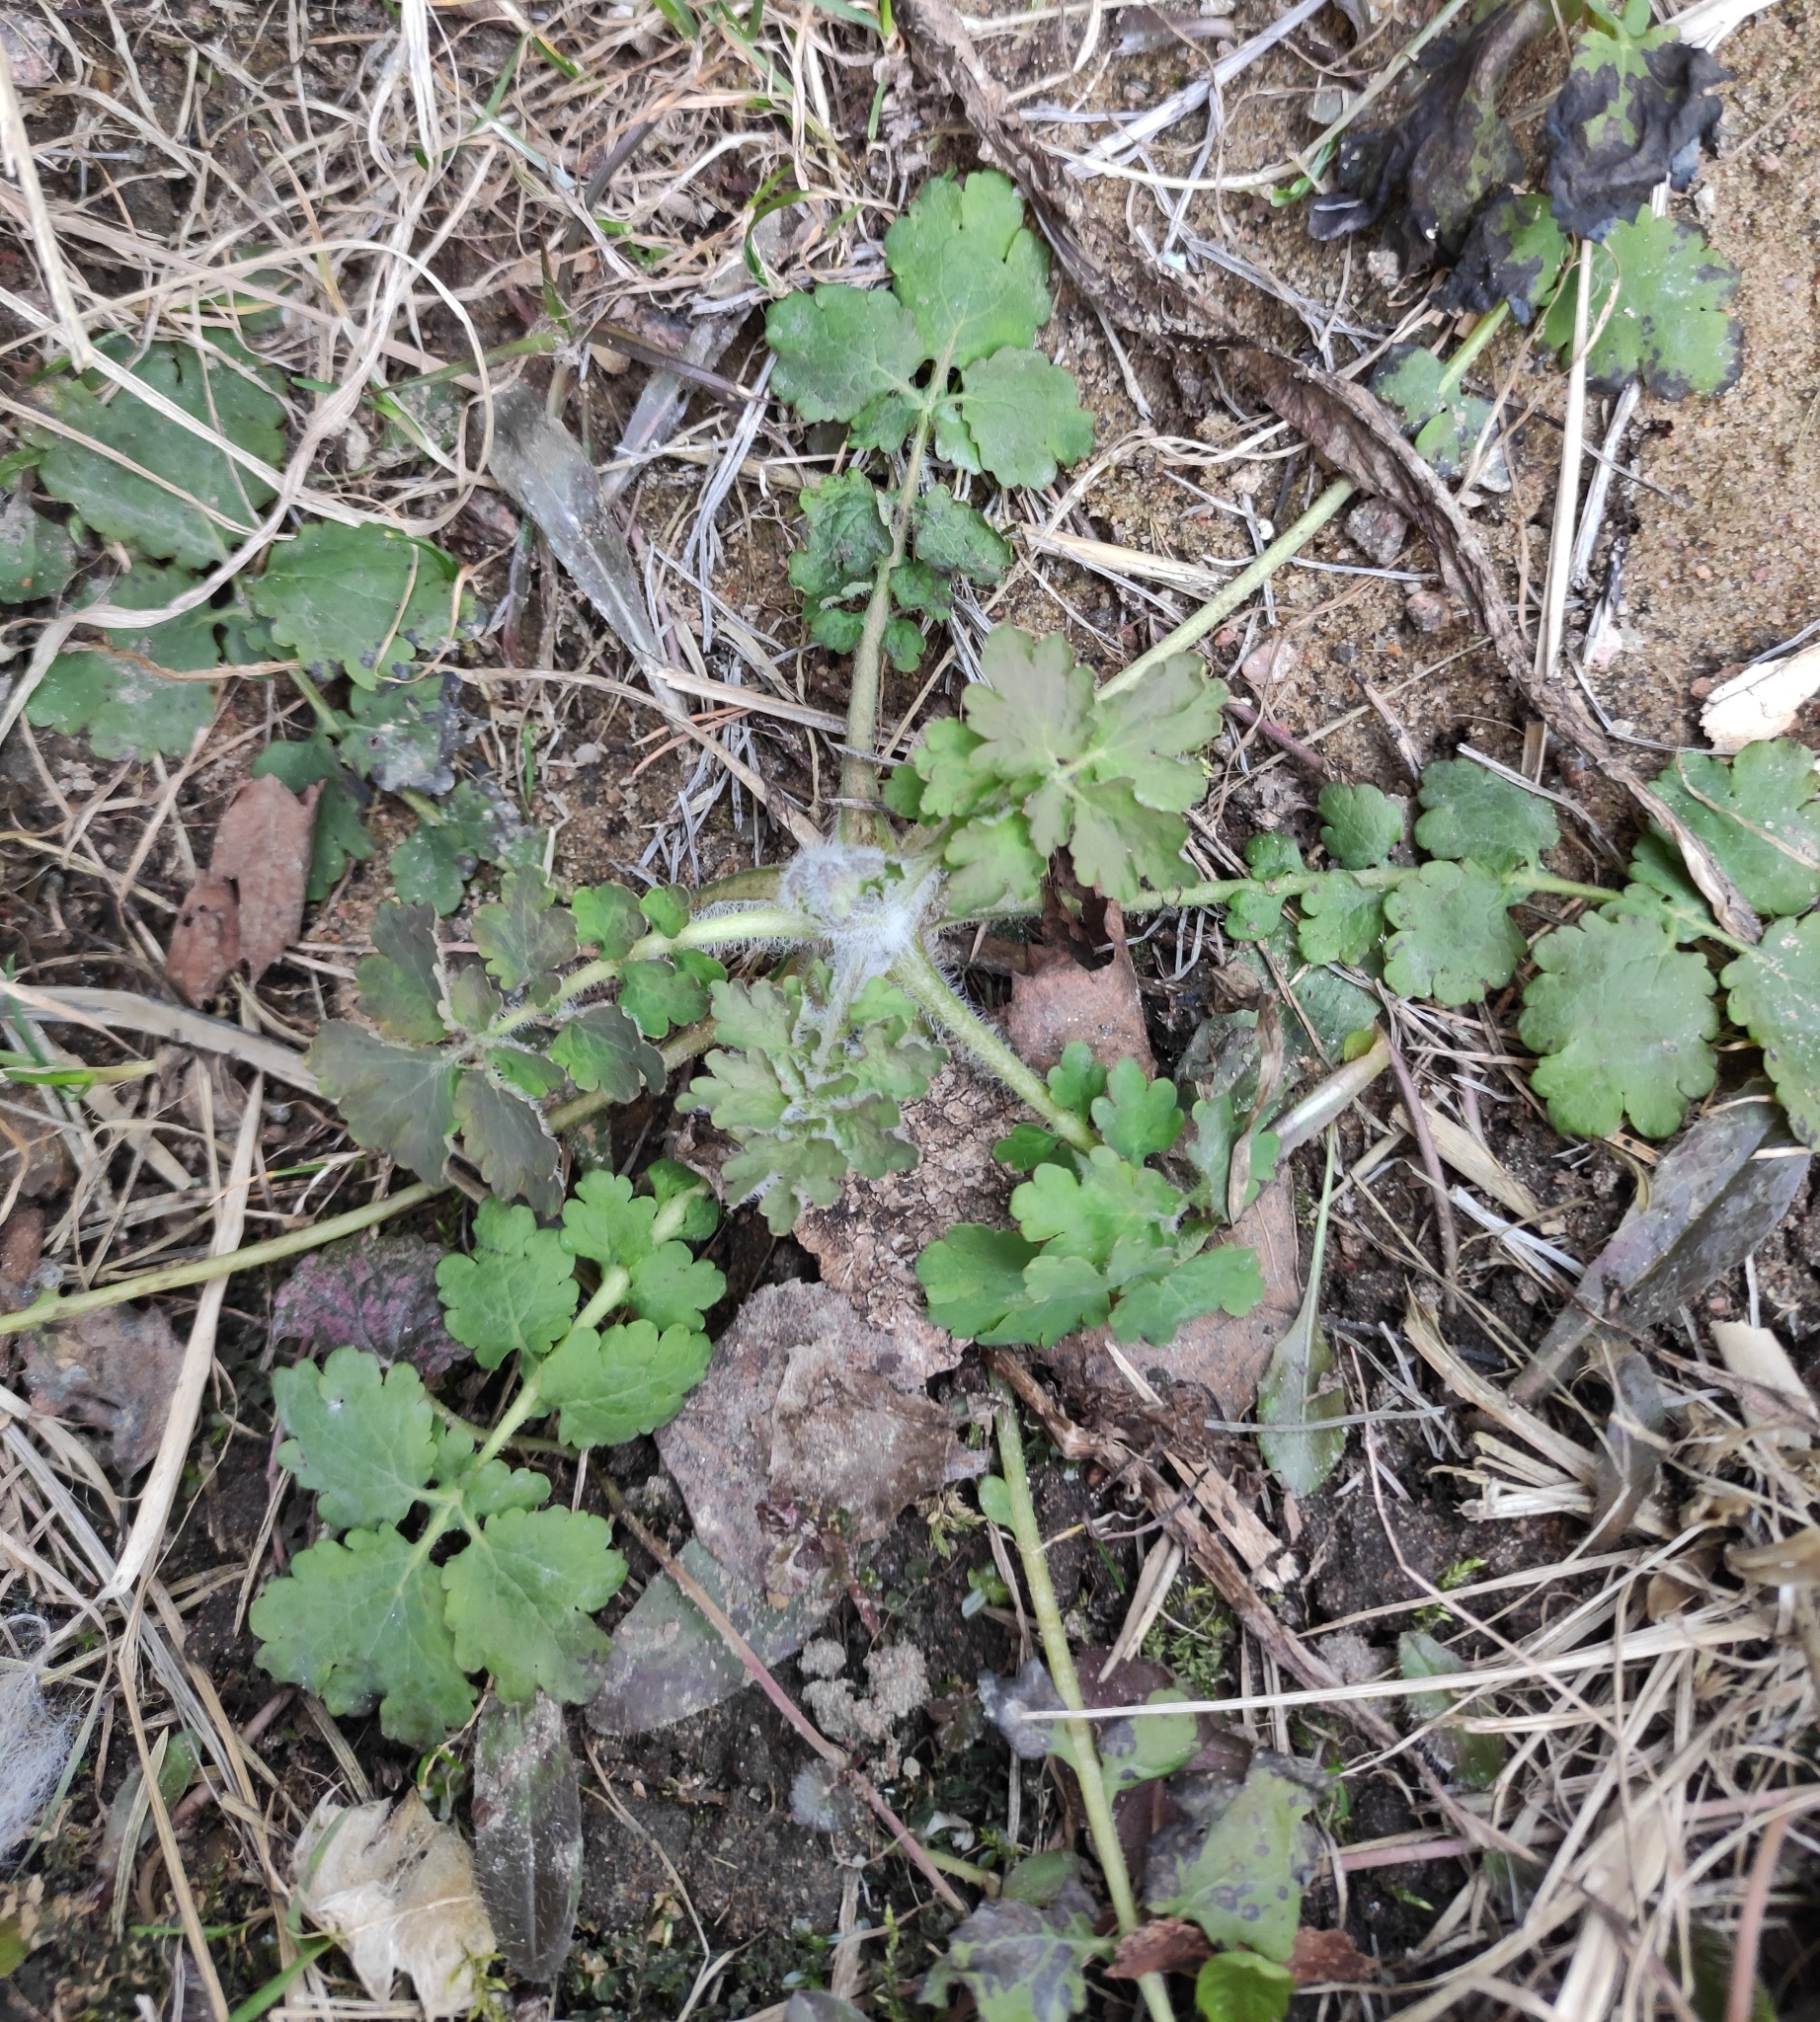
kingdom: Plantae
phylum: Tracheophyta
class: Magnoliopsida
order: Ranunculales
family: Papaveraceae
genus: Chelidonium
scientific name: Chelidonium majus
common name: Greater celandine
